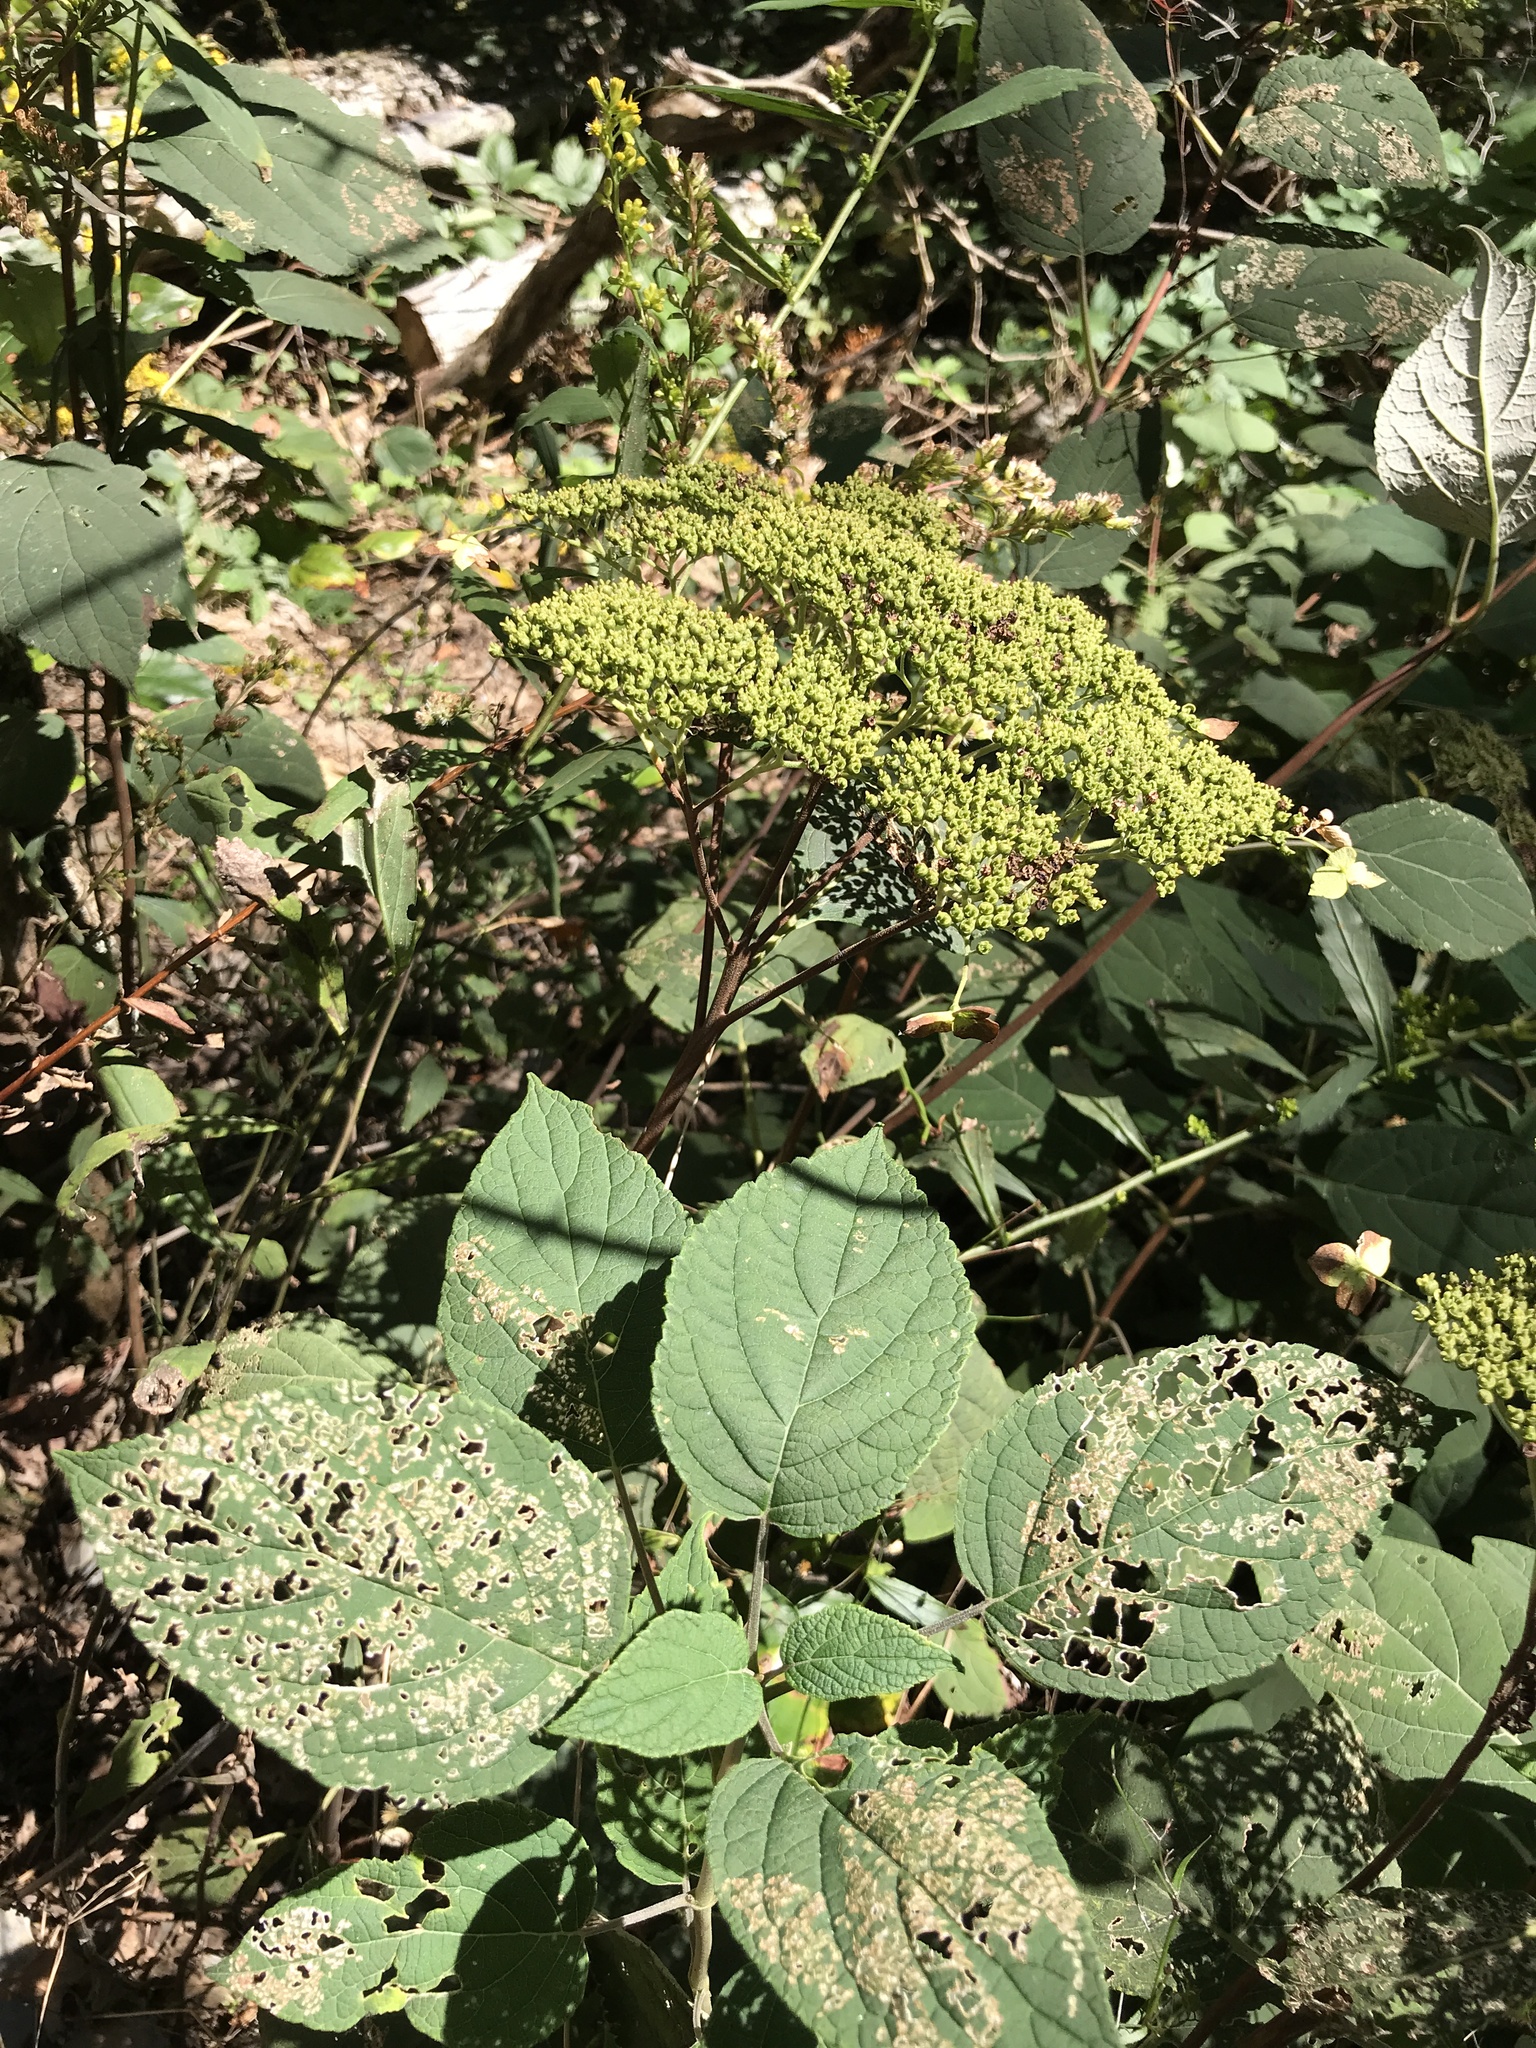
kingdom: Plantae
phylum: Tracheophyta
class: Magnoliopsida
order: Cornales
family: Hydrangeaceae
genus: Hydrangea
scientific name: Hydrangea arborescens
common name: Sevenbark
